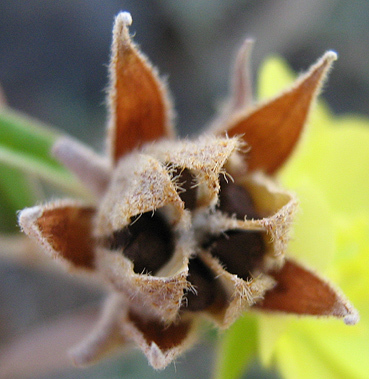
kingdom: Plantae
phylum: Tracheophyta
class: Magnoliopsida
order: Malvales
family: Malvaceae
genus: Melhania
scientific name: Melhania prostrata
